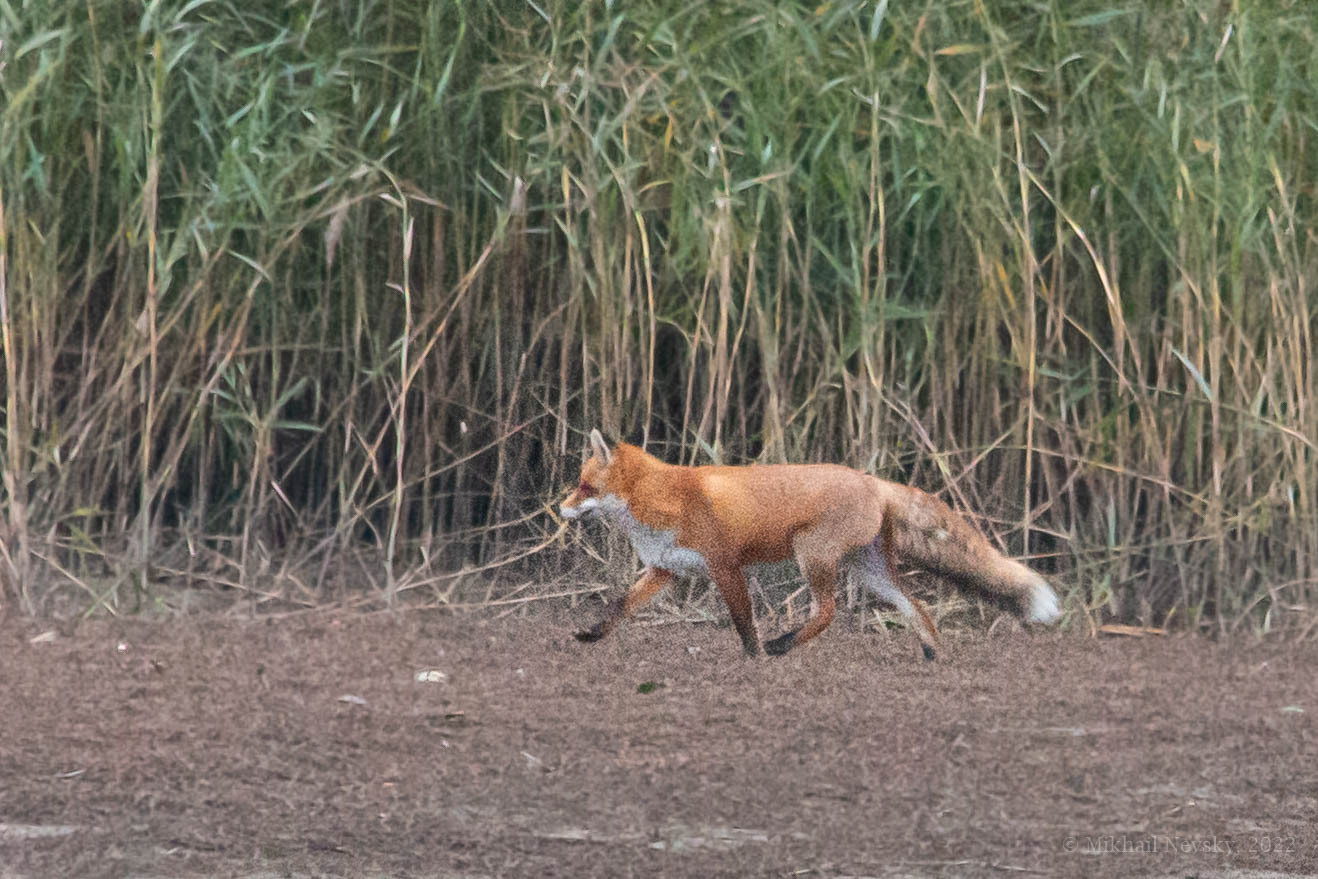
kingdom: Animalia
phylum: Chordata
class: Mammalia
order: Carnivora
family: Canidae
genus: Vulpes
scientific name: Vulpes vulpes
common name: Red fox
